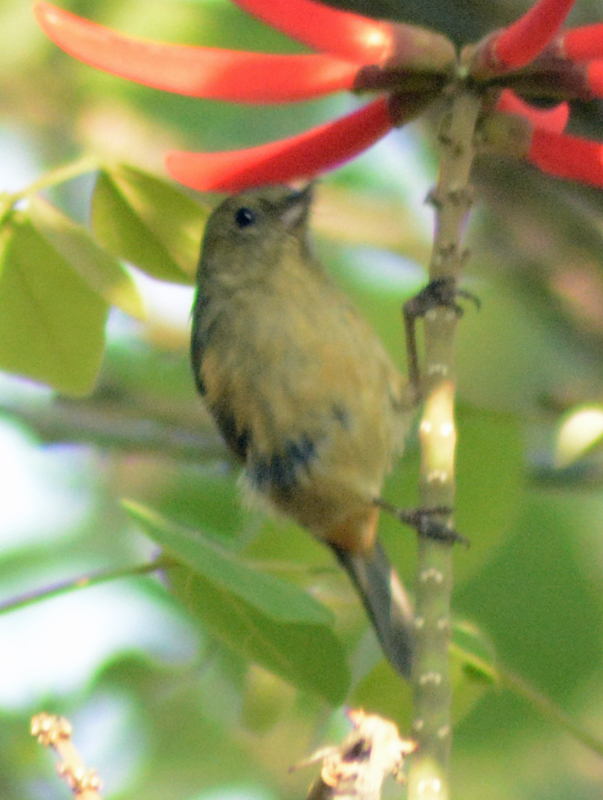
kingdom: Animalia
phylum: Chordata
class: Aves
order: Passeriformes
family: Thraupidae
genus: Diglossa
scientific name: Diglossa baritula
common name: Cinnamon-bellied flowerpiercer
